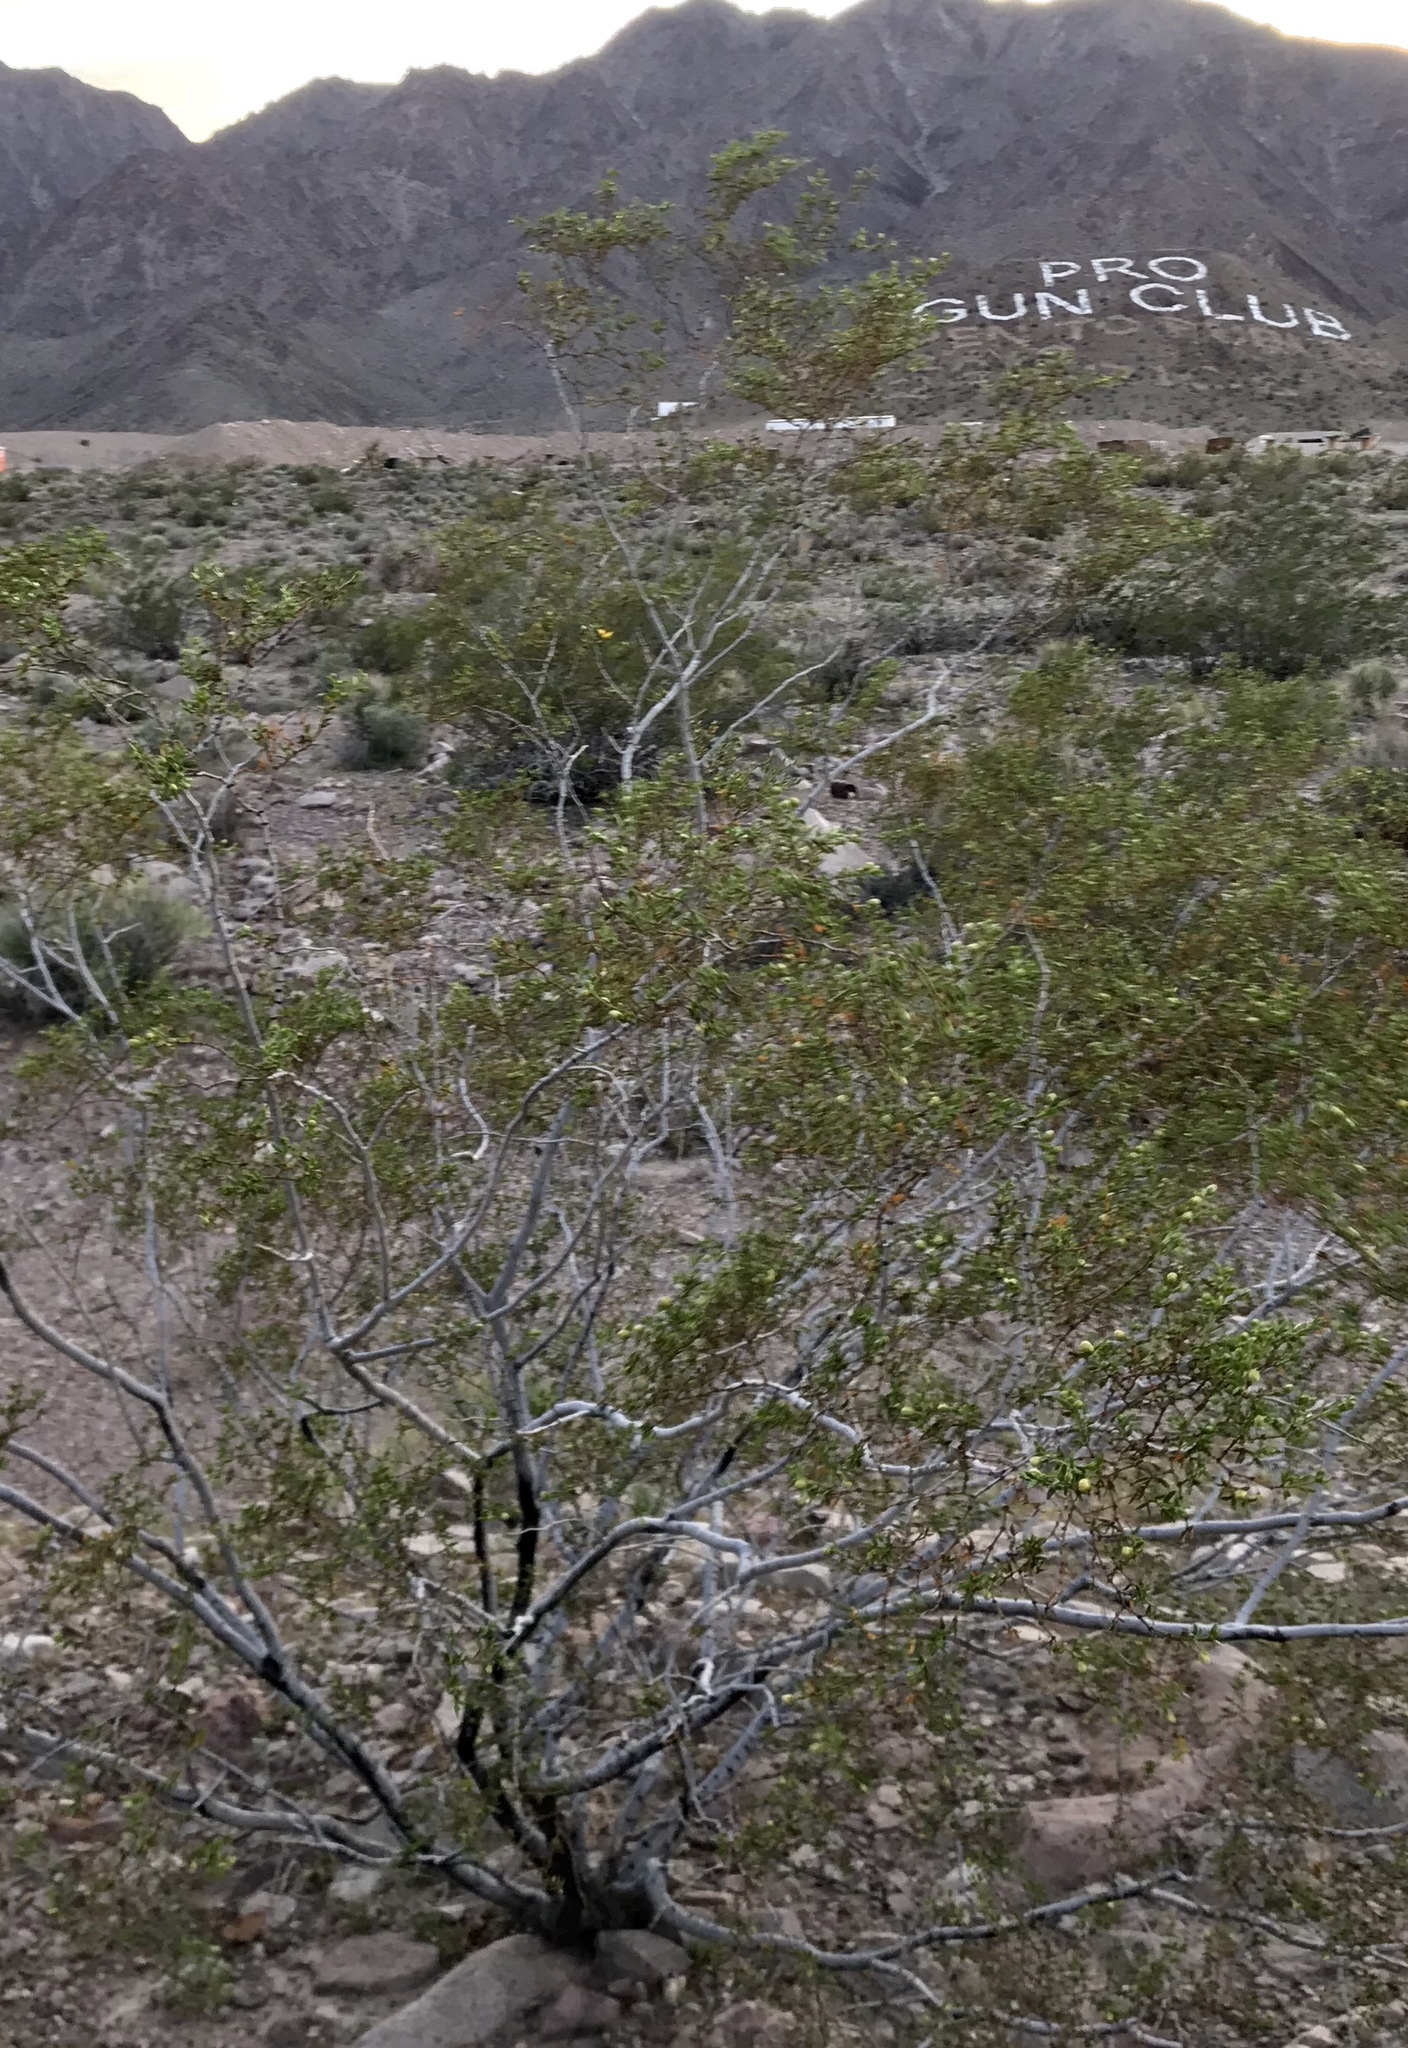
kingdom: Plantae
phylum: Tracheophyta
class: Magnoliopsida
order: Zygophyllales
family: Zygophyllaceae
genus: Larrea
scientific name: Larrea tridentata
